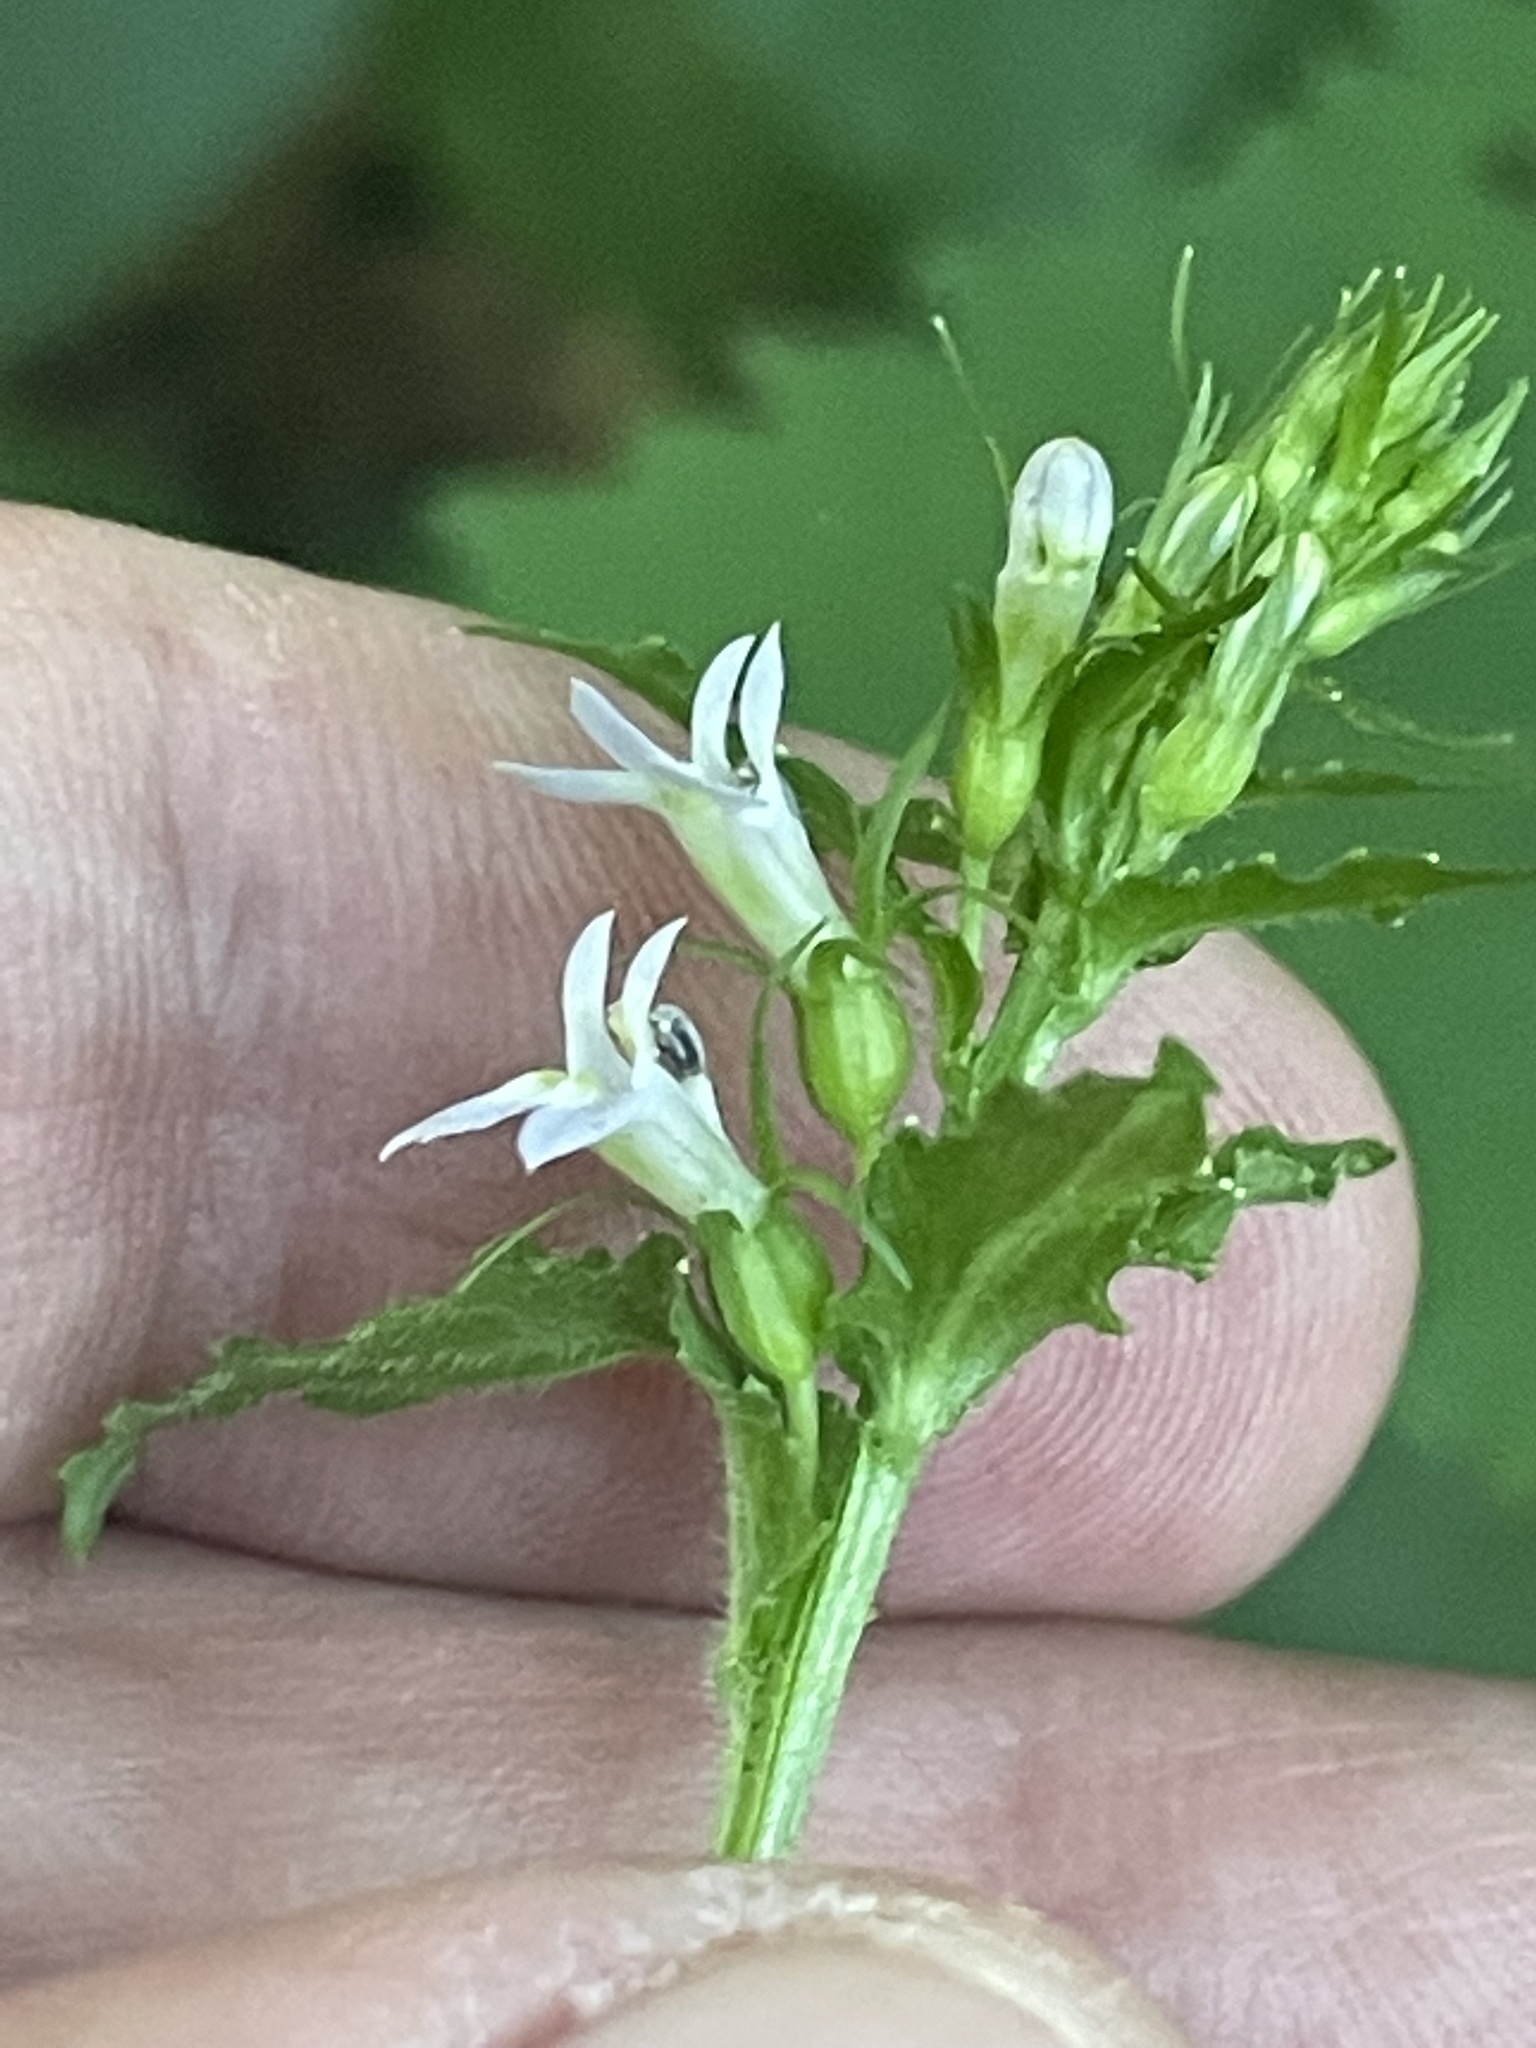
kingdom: Plantae
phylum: Tracheophyta
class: Magnoliopsida
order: Asterales
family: Campanulaceae
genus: Lobelia
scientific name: Lobelia inflata
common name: Indian tobacco
